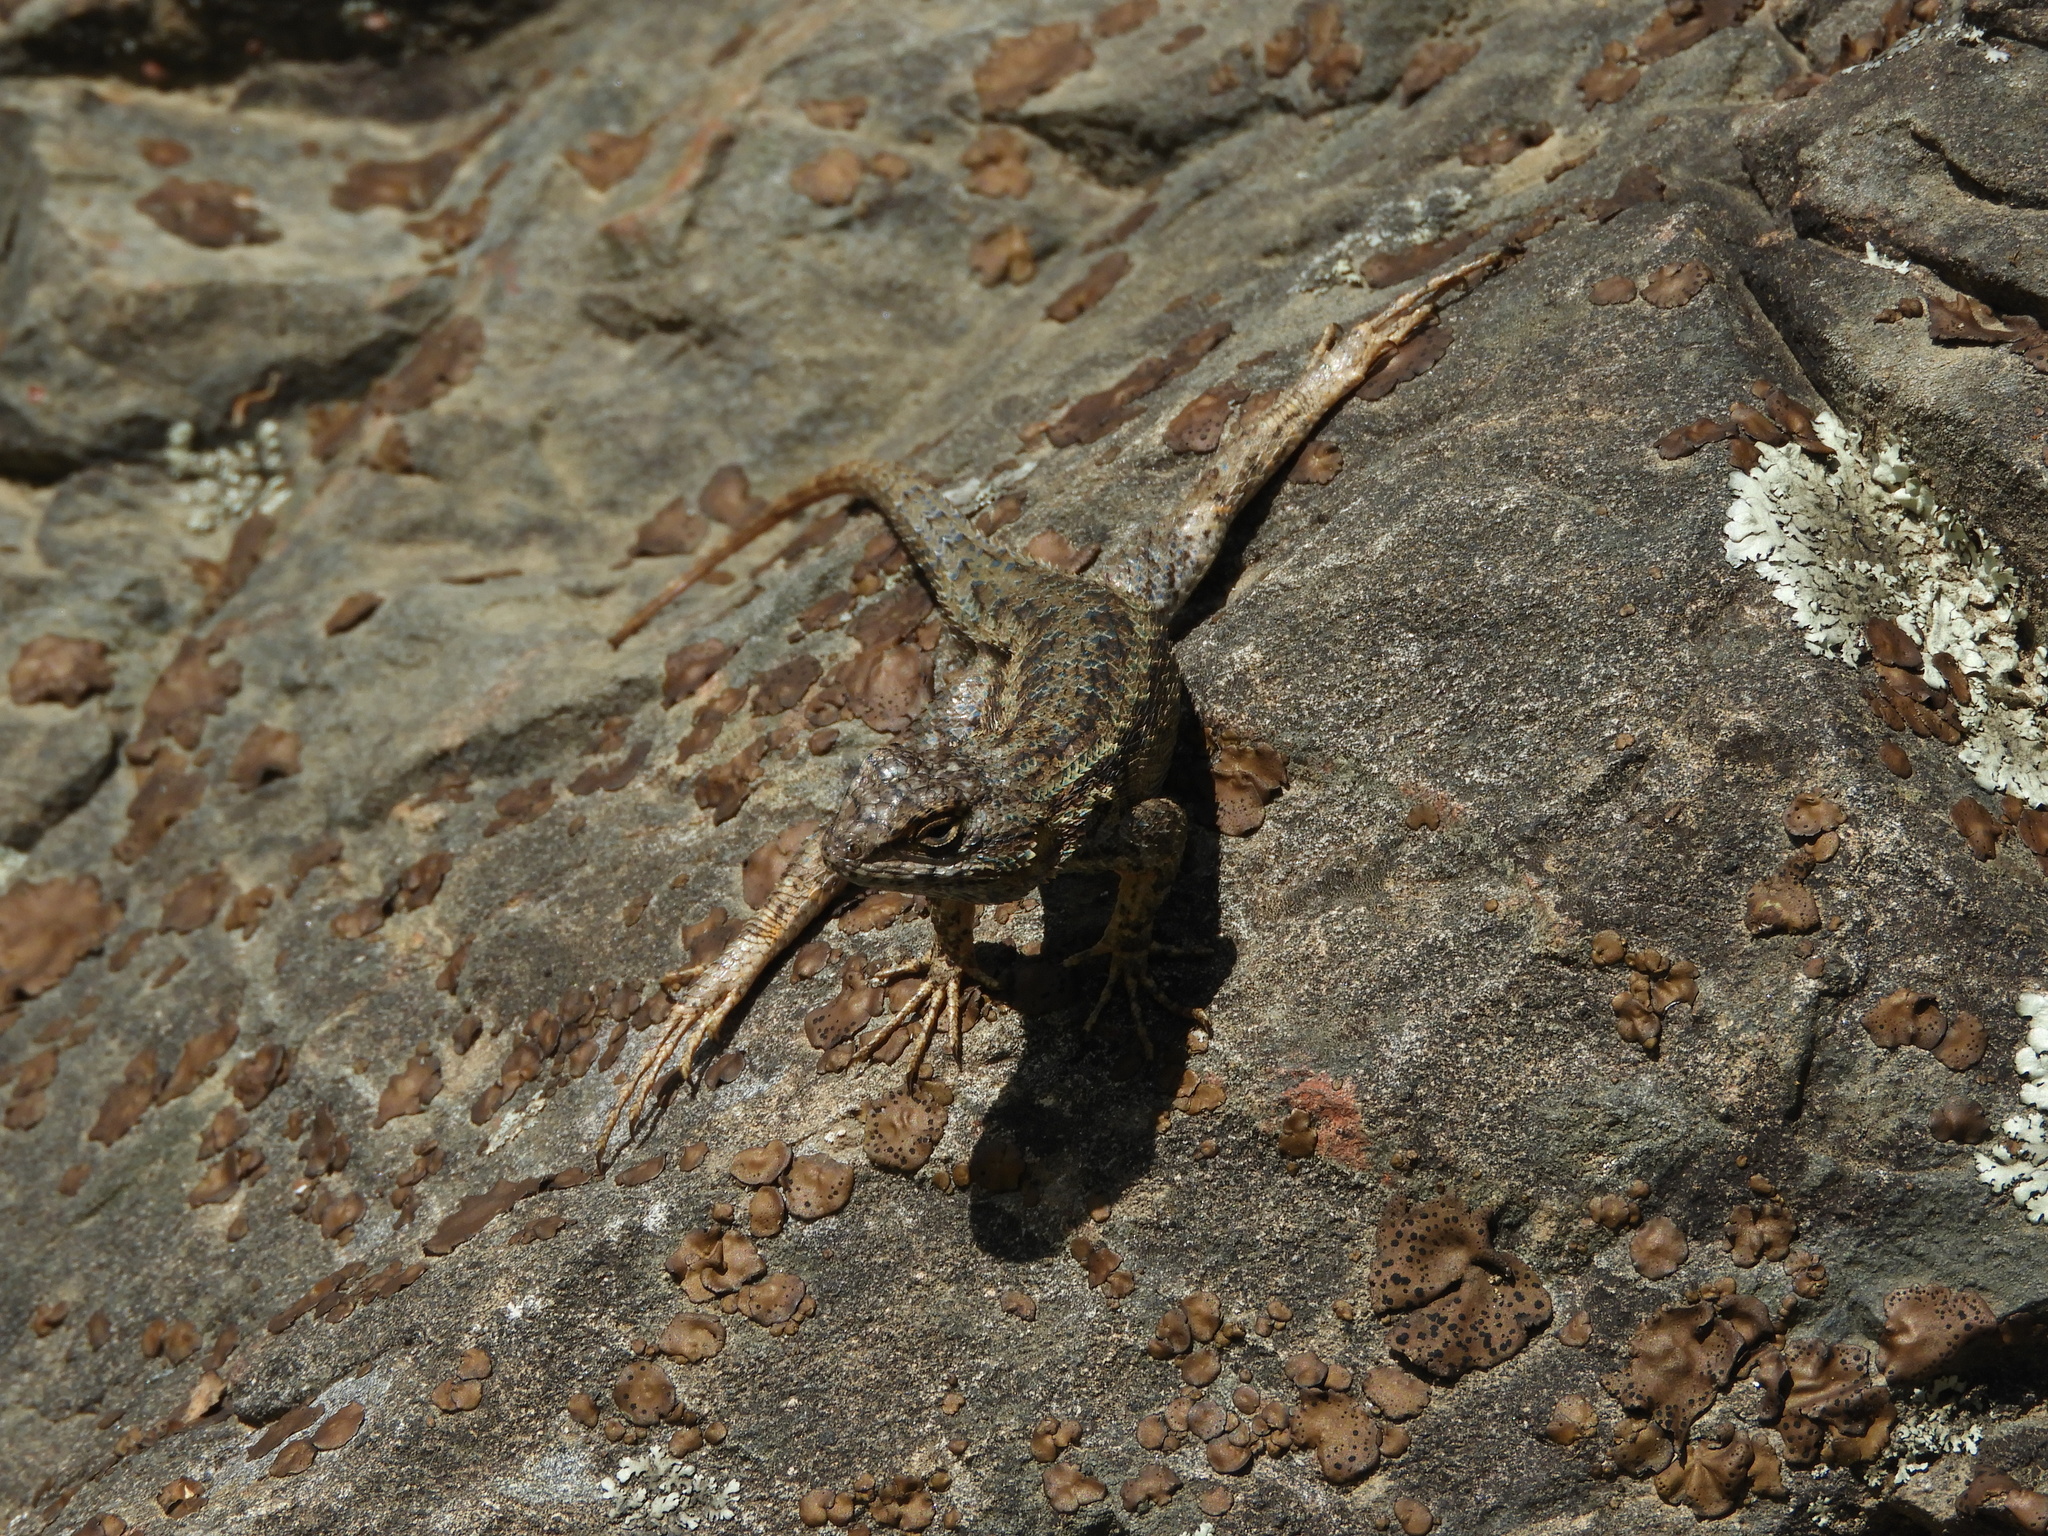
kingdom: Animalia
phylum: Chordata
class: Squamata
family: Phrynosomatidae
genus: Sceloporus
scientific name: Sceloporus occidentalis
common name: Western fence lizard
